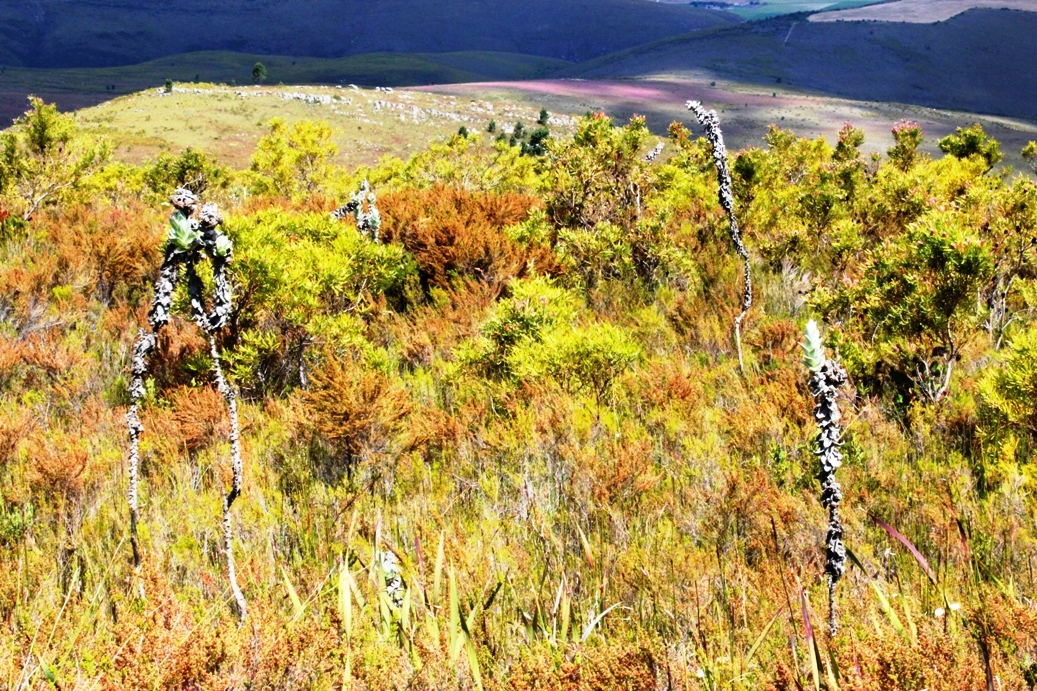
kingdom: Plantae
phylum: Tracheophyta
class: Magnoliopsida
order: Asterales
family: Asteraceae
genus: Syncarpha
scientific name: Syncarpha eximia
